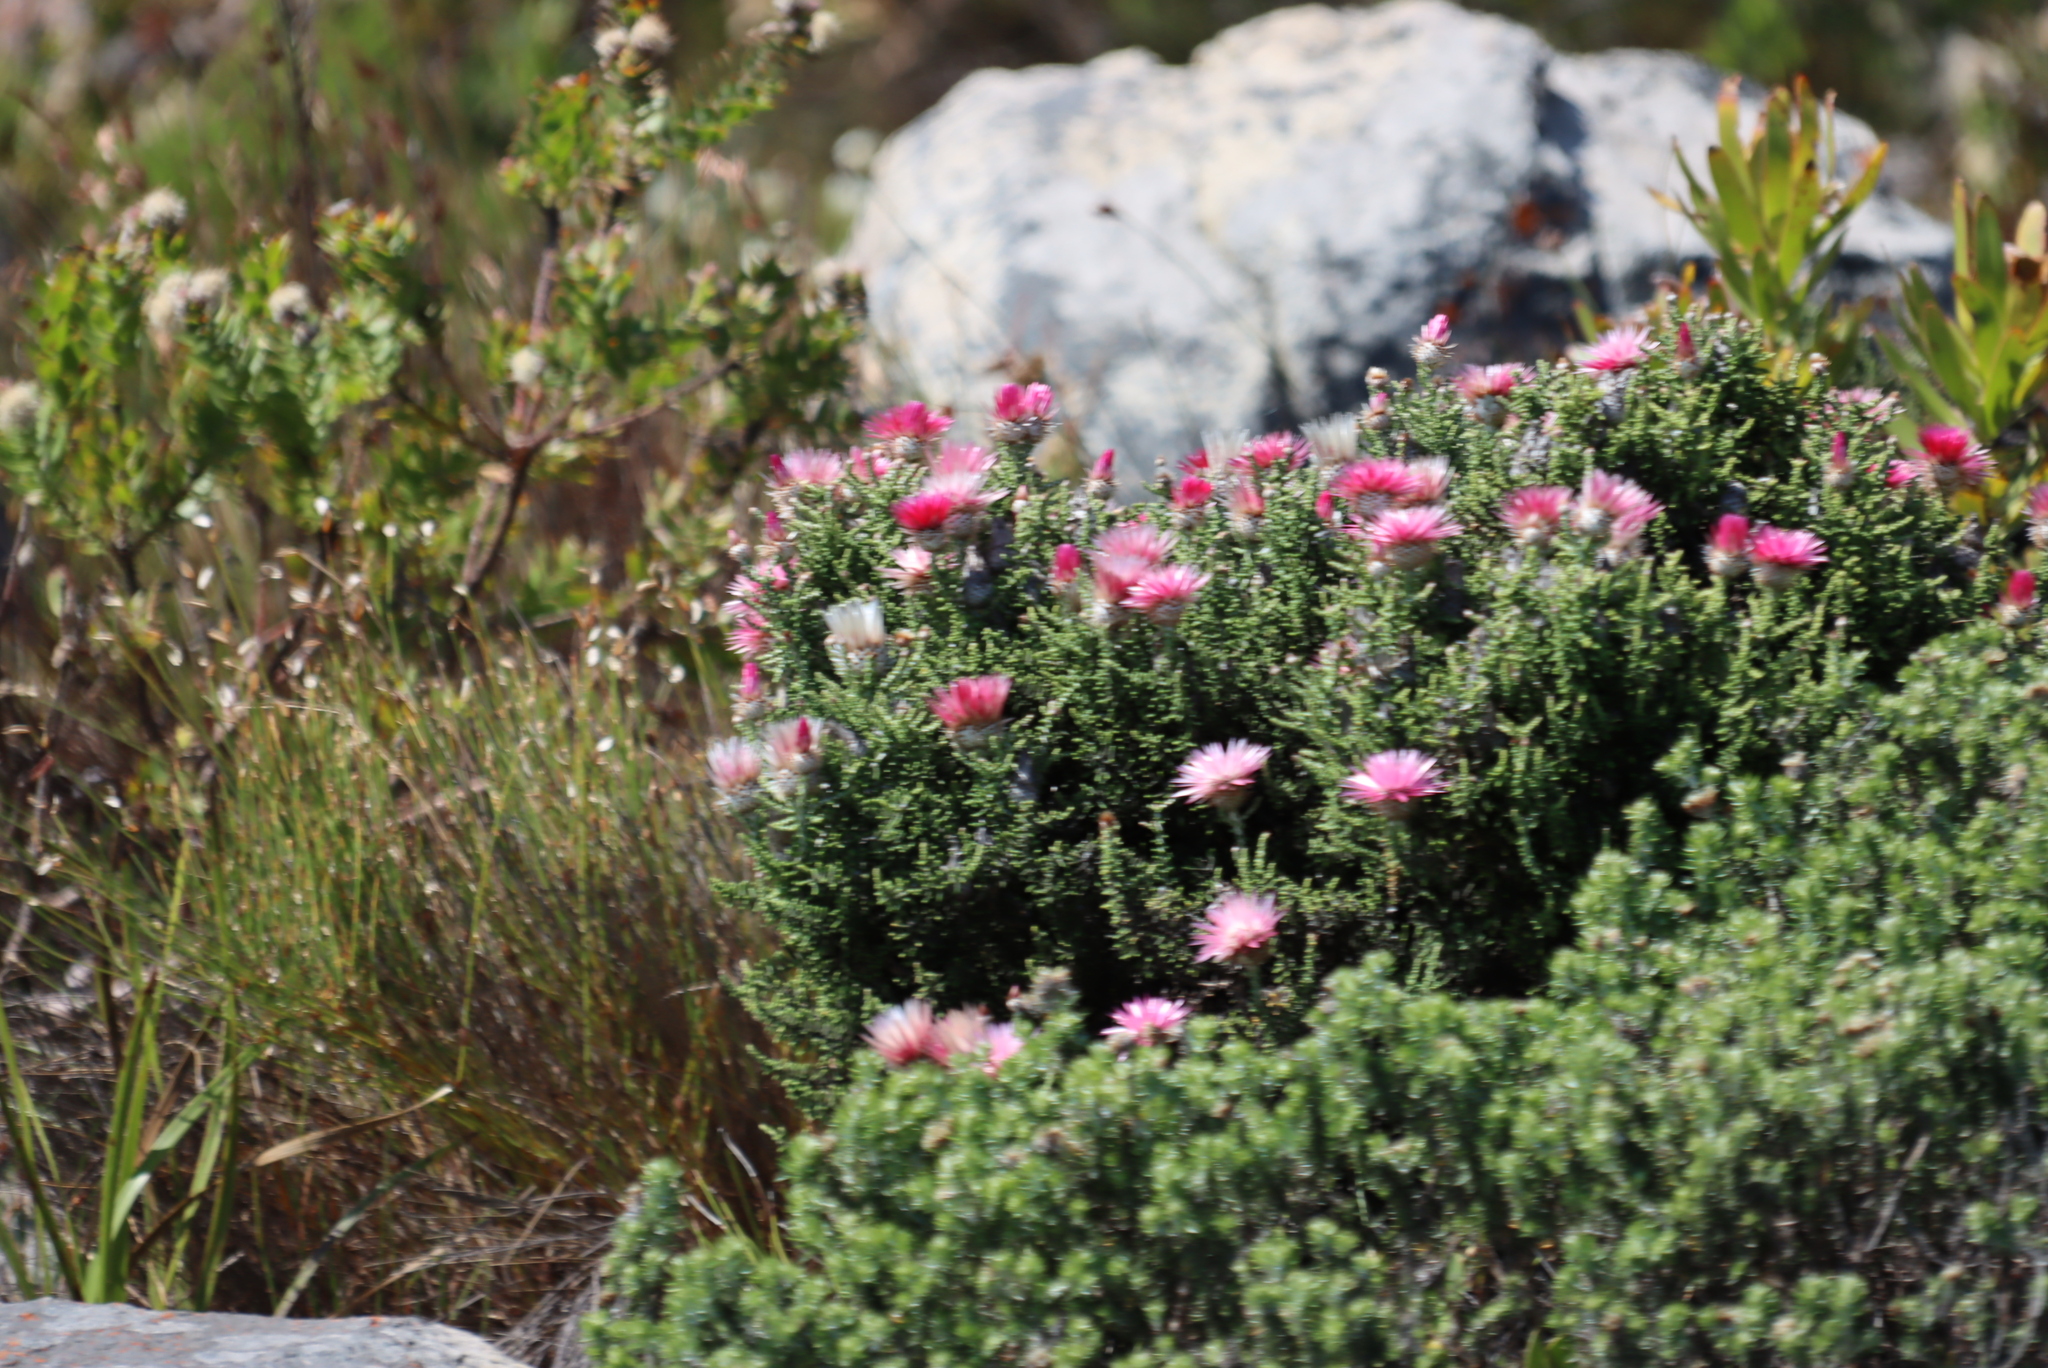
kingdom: Plantae
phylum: Tracheophyta
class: Magnoliopsida
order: Asterales
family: Asteraceae
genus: Phaenocoma
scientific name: Phaenocoma prolifera
